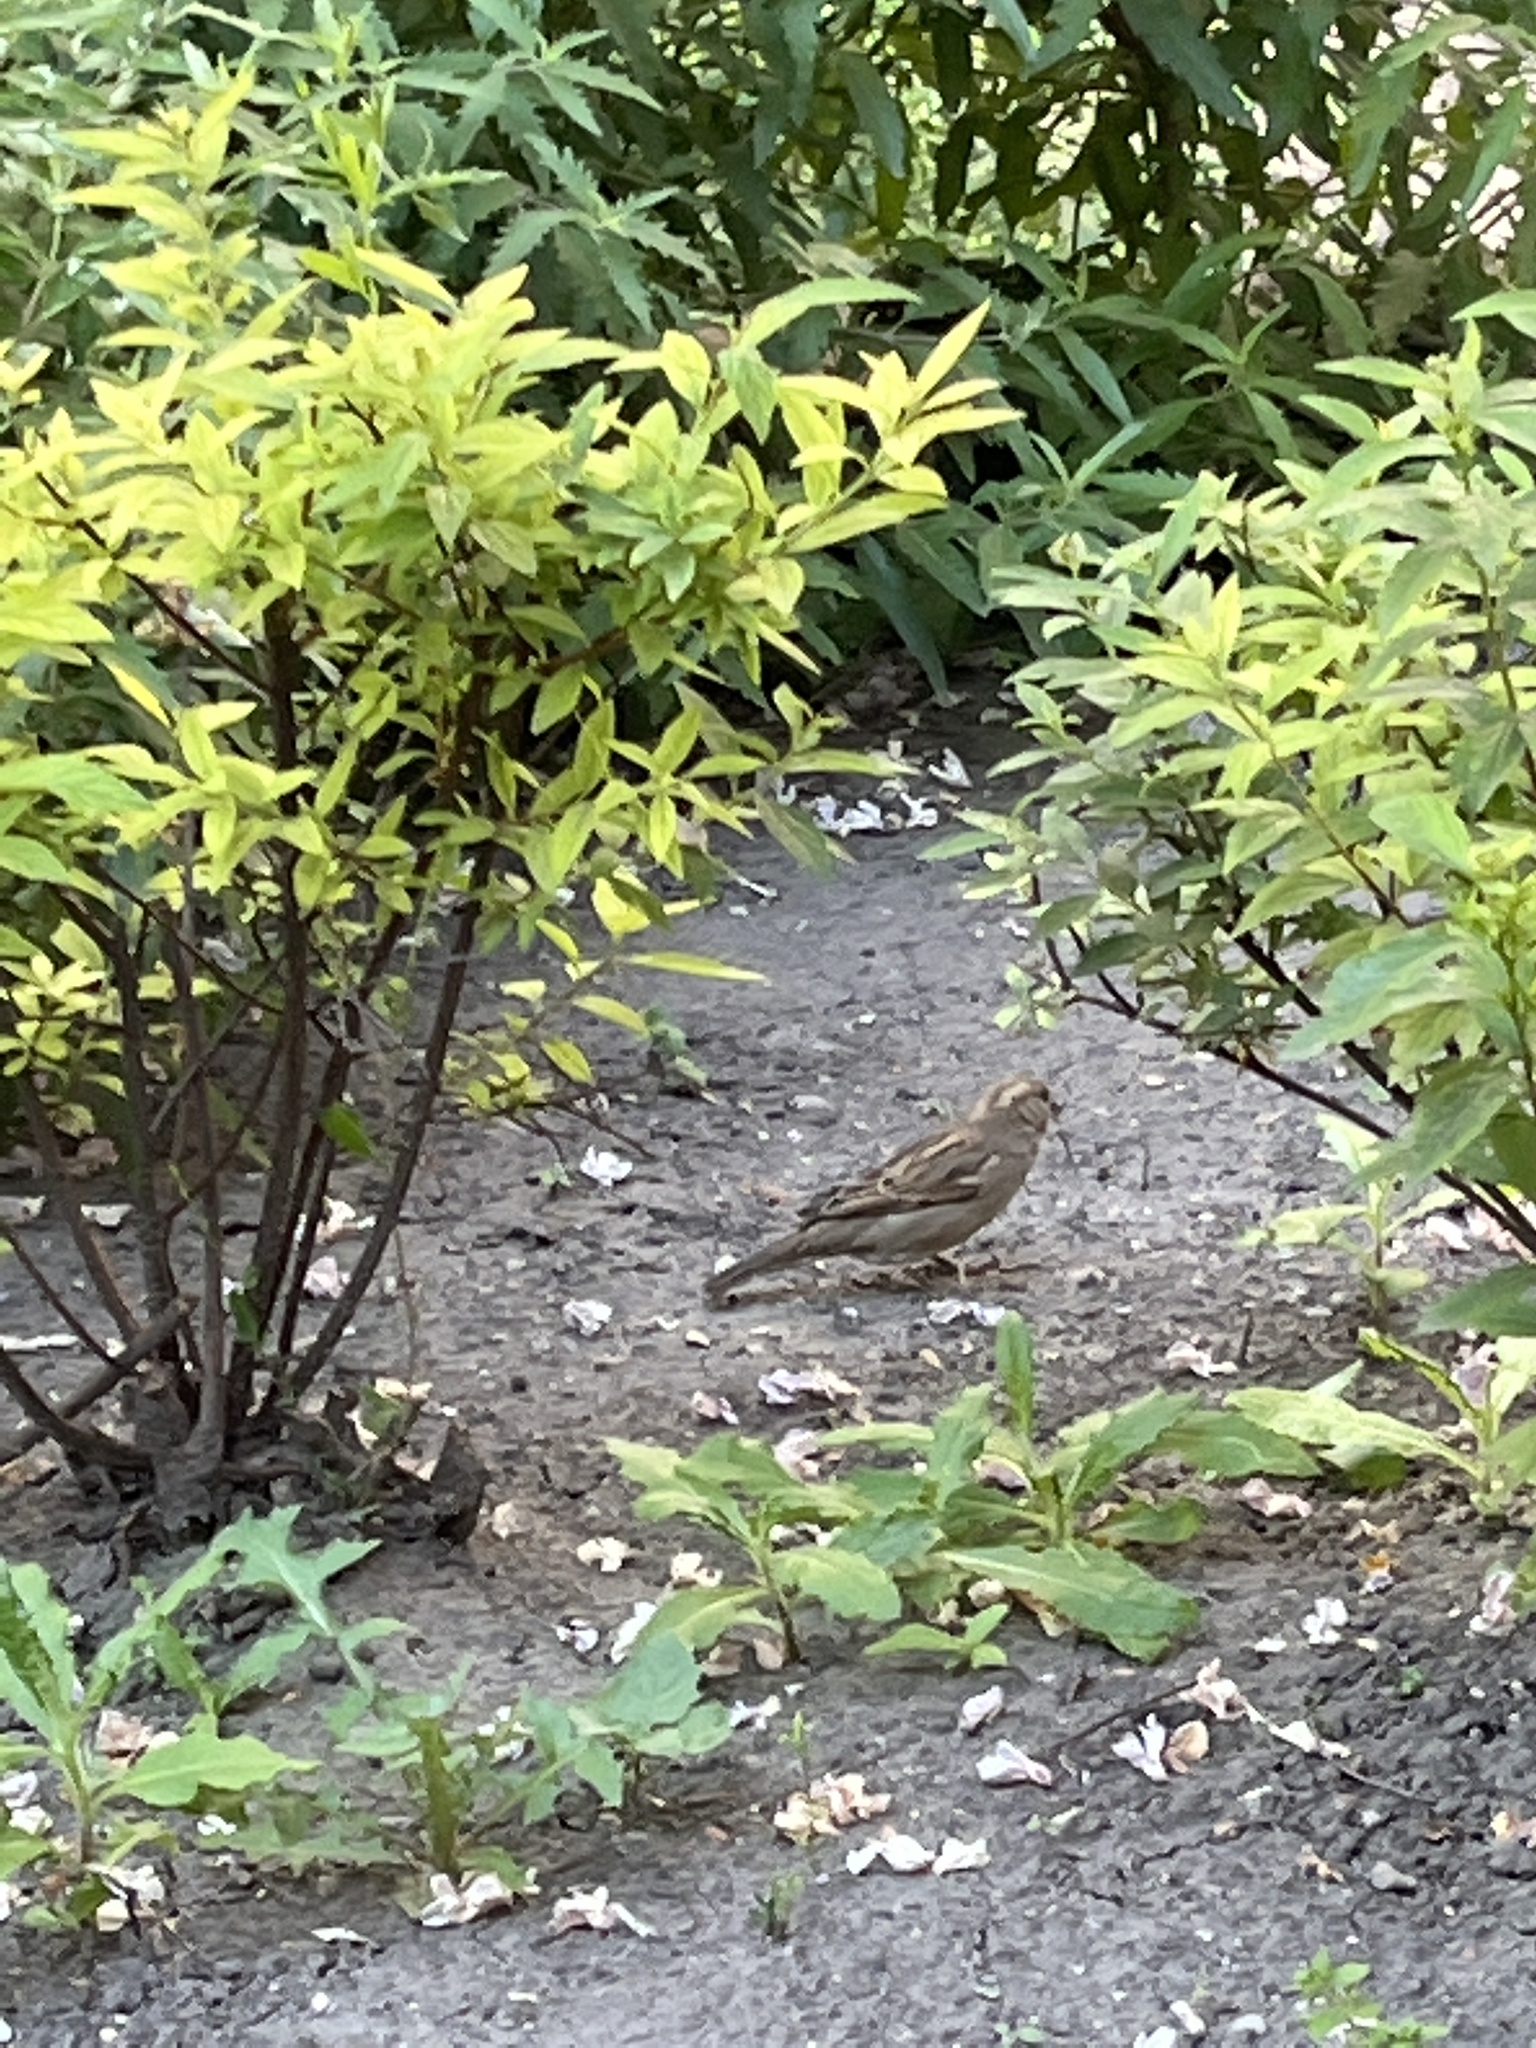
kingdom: Animalia
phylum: Chordata
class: Aves
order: Passeriformes
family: Passeridae
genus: Passer
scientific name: Passer domesticus
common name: House sparrow
